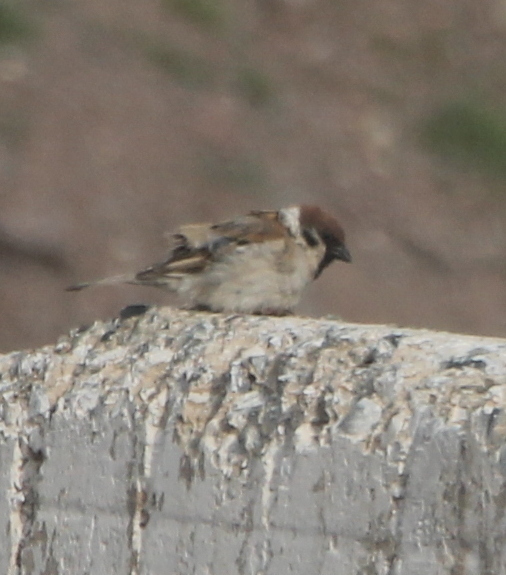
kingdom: Animalia
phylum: Chordata
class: Aves
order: Passeriformes
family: Passeridae
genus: Passer
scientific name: Passer montanus
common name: Eurasian tree sparrow
